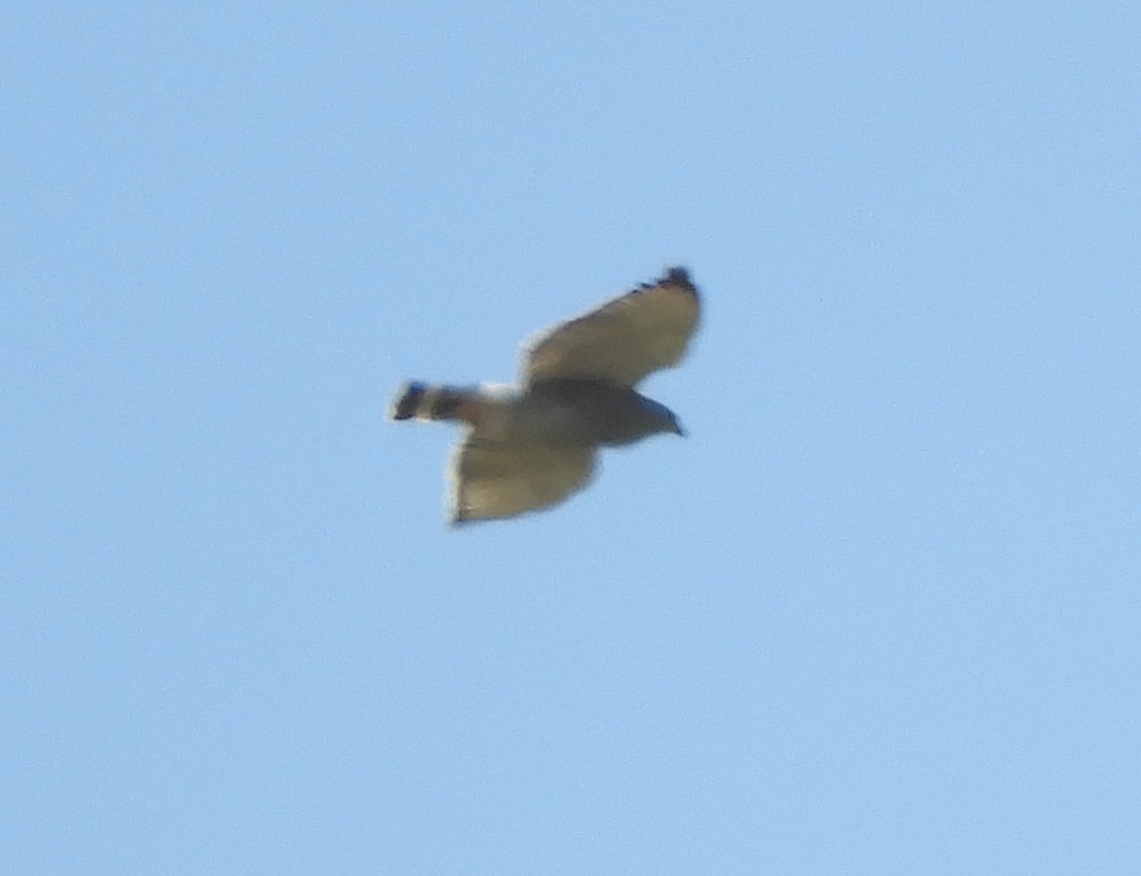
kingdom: Animalia
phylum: Chordata
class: Aves
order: Accipitriformes
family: Accipitridae
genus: Buteo
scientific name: Buteo nitidus
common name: Grey-lined hawk
